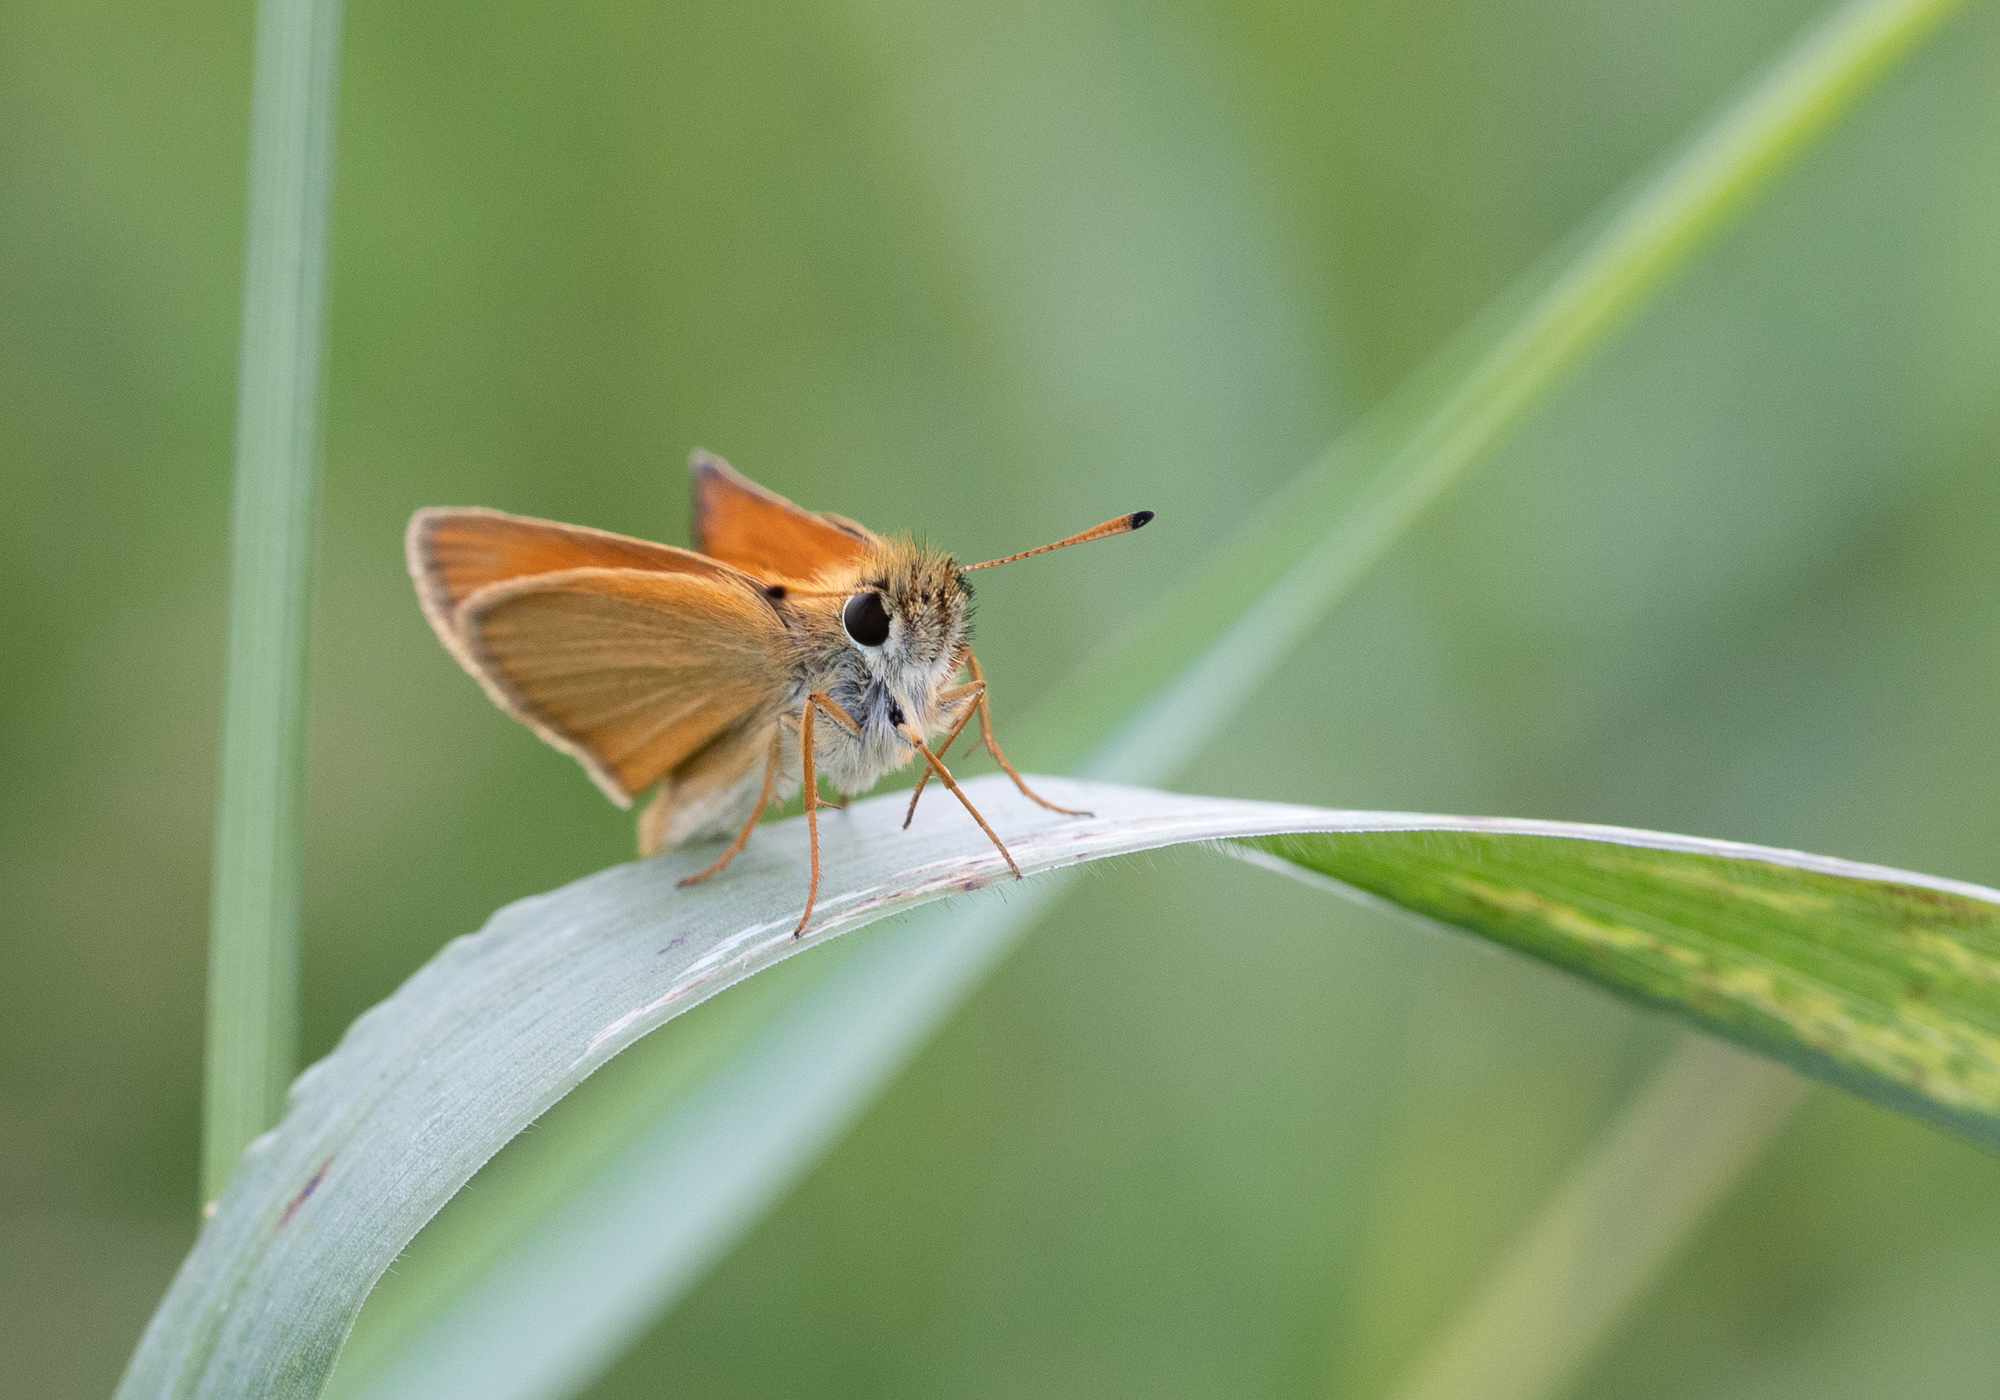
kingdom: Animalia
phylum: Arthropoda
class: Insecta
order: Lepidoptera
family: Hesperiidae
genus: Thymelicus
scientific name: Thymelicus lineola
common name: Essex skipper
